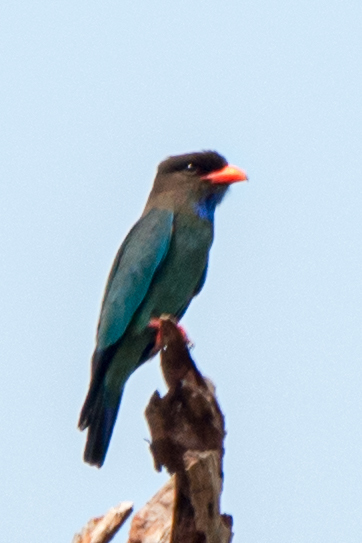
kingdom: Animalia
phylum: Chordata
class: Aves
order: Coraciiformes
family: Coraciidae
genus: Eurystomus
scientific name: Eurystomus orientalis
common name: Oriental dollarbird
